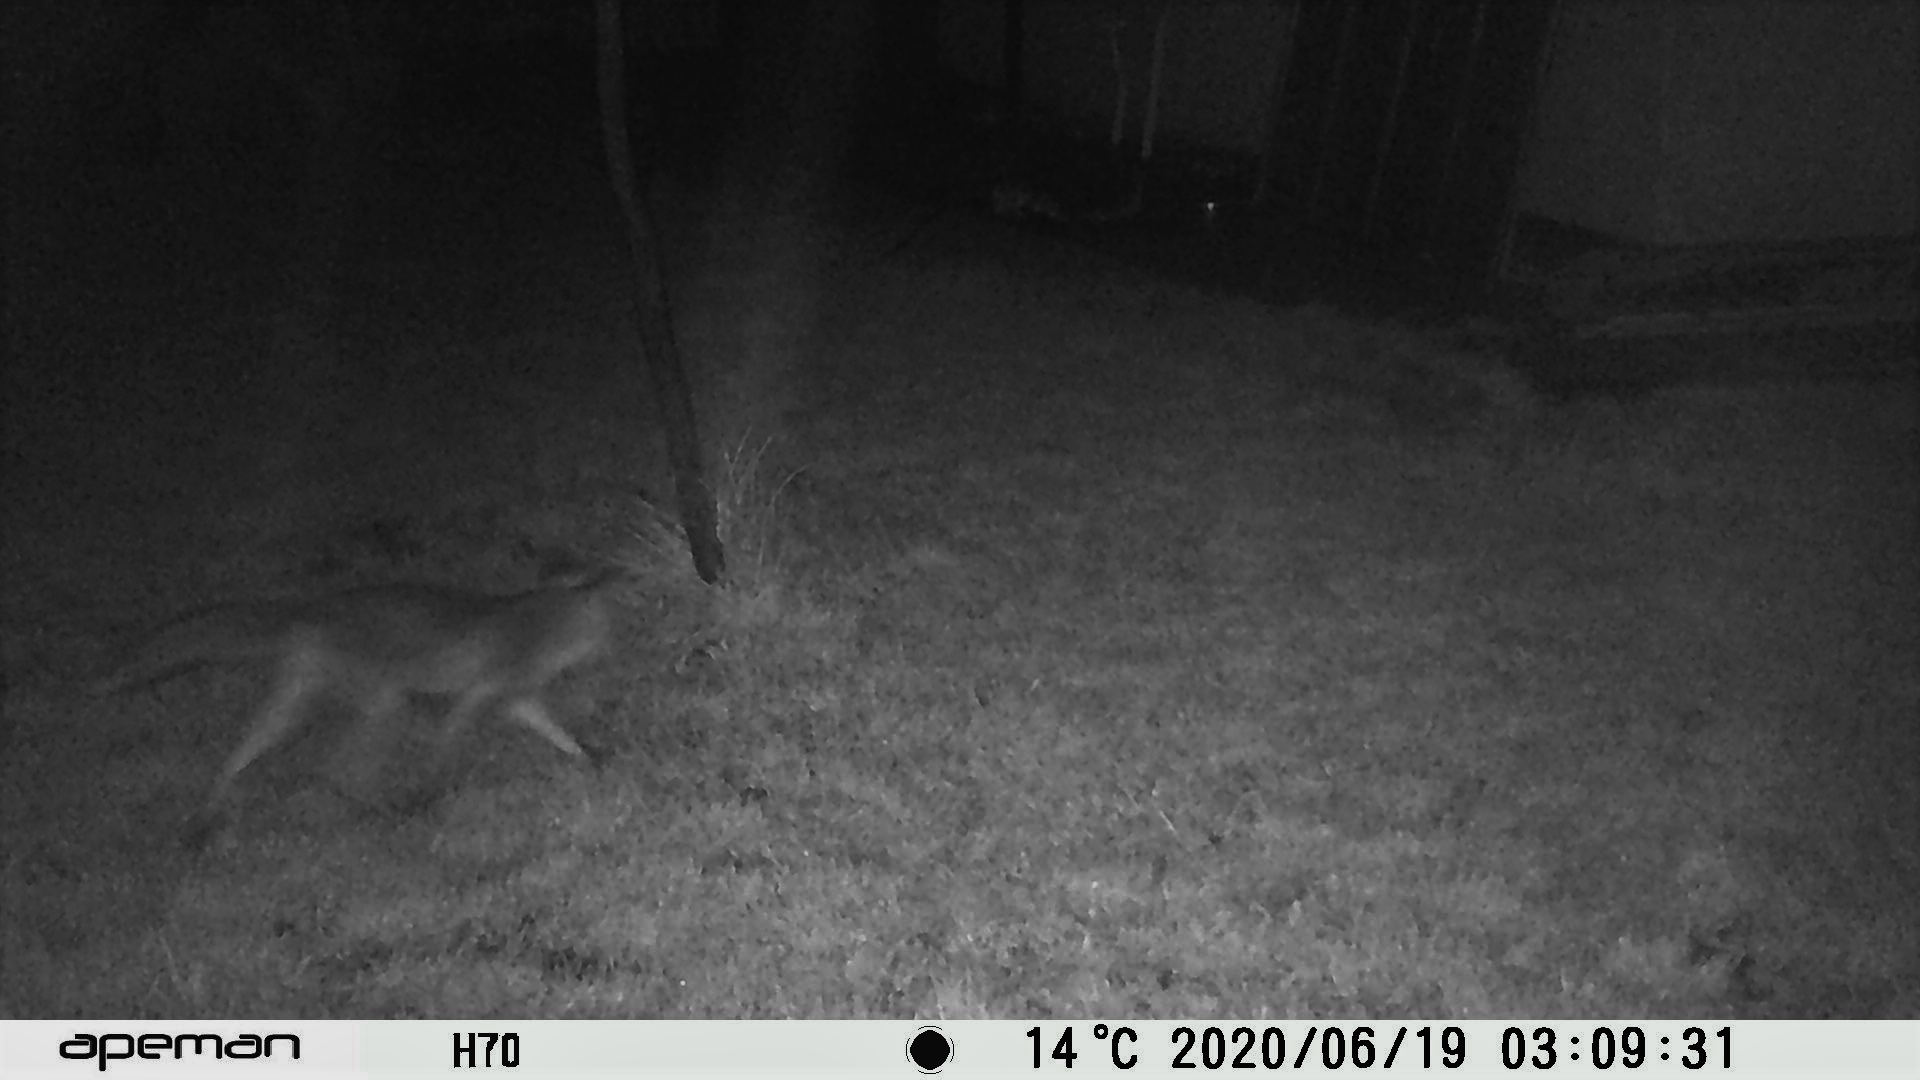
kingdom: Animalia
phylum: Chordata
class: Mammalia
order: Carnivora
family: Canidae
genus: Vulpes
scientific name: Vulpes vulpes
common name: Red fox
